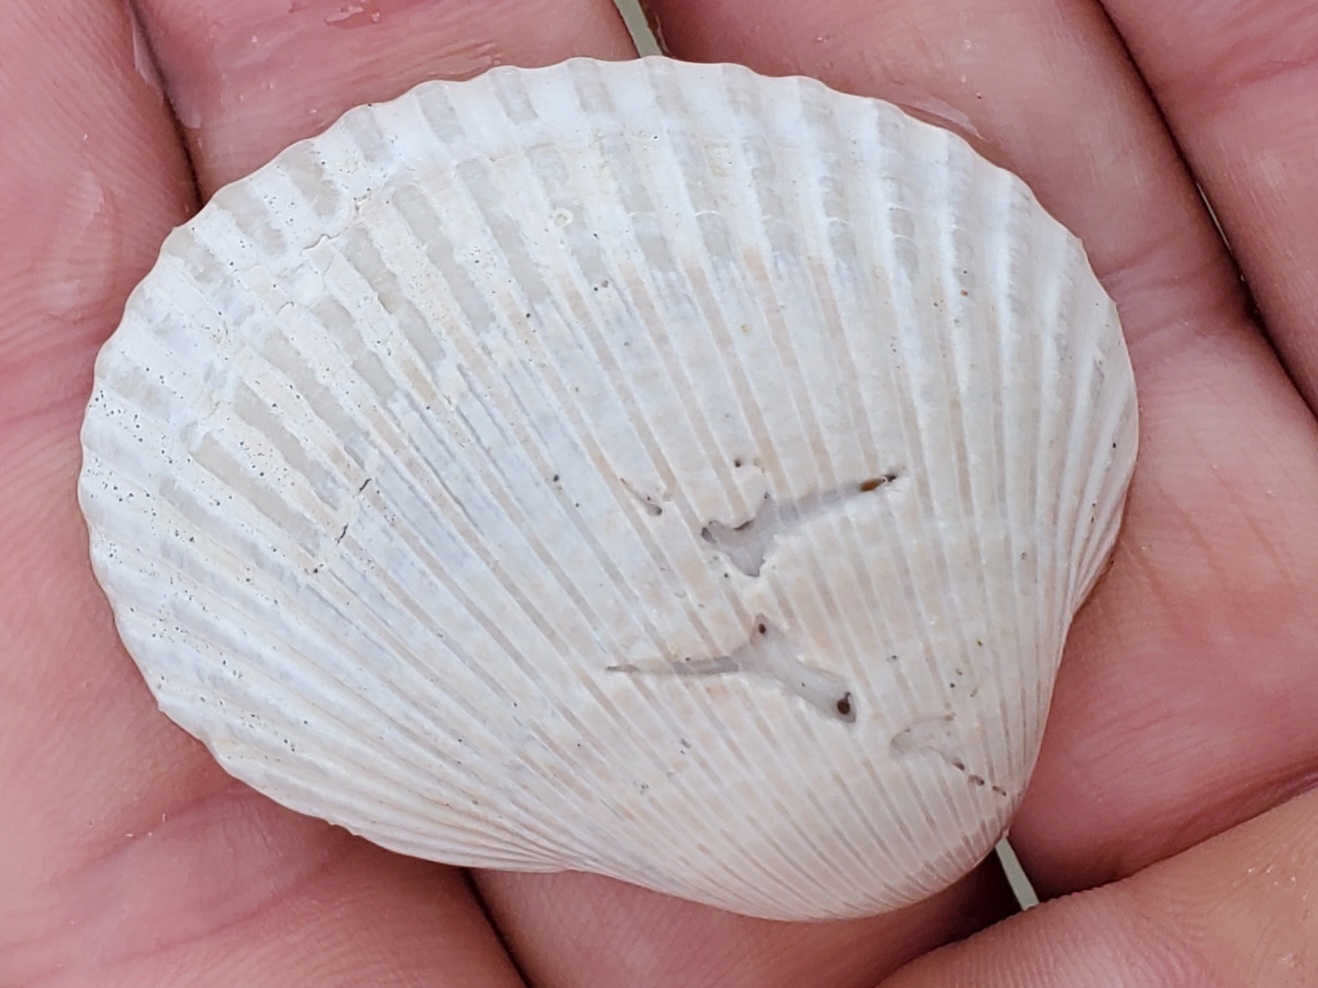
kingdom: Animalia
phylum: Mollusca
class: Bivalvia
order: Arcida
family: Arcidae
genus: Lunarca
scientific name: Lunarca ovalis
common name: Blood ark
